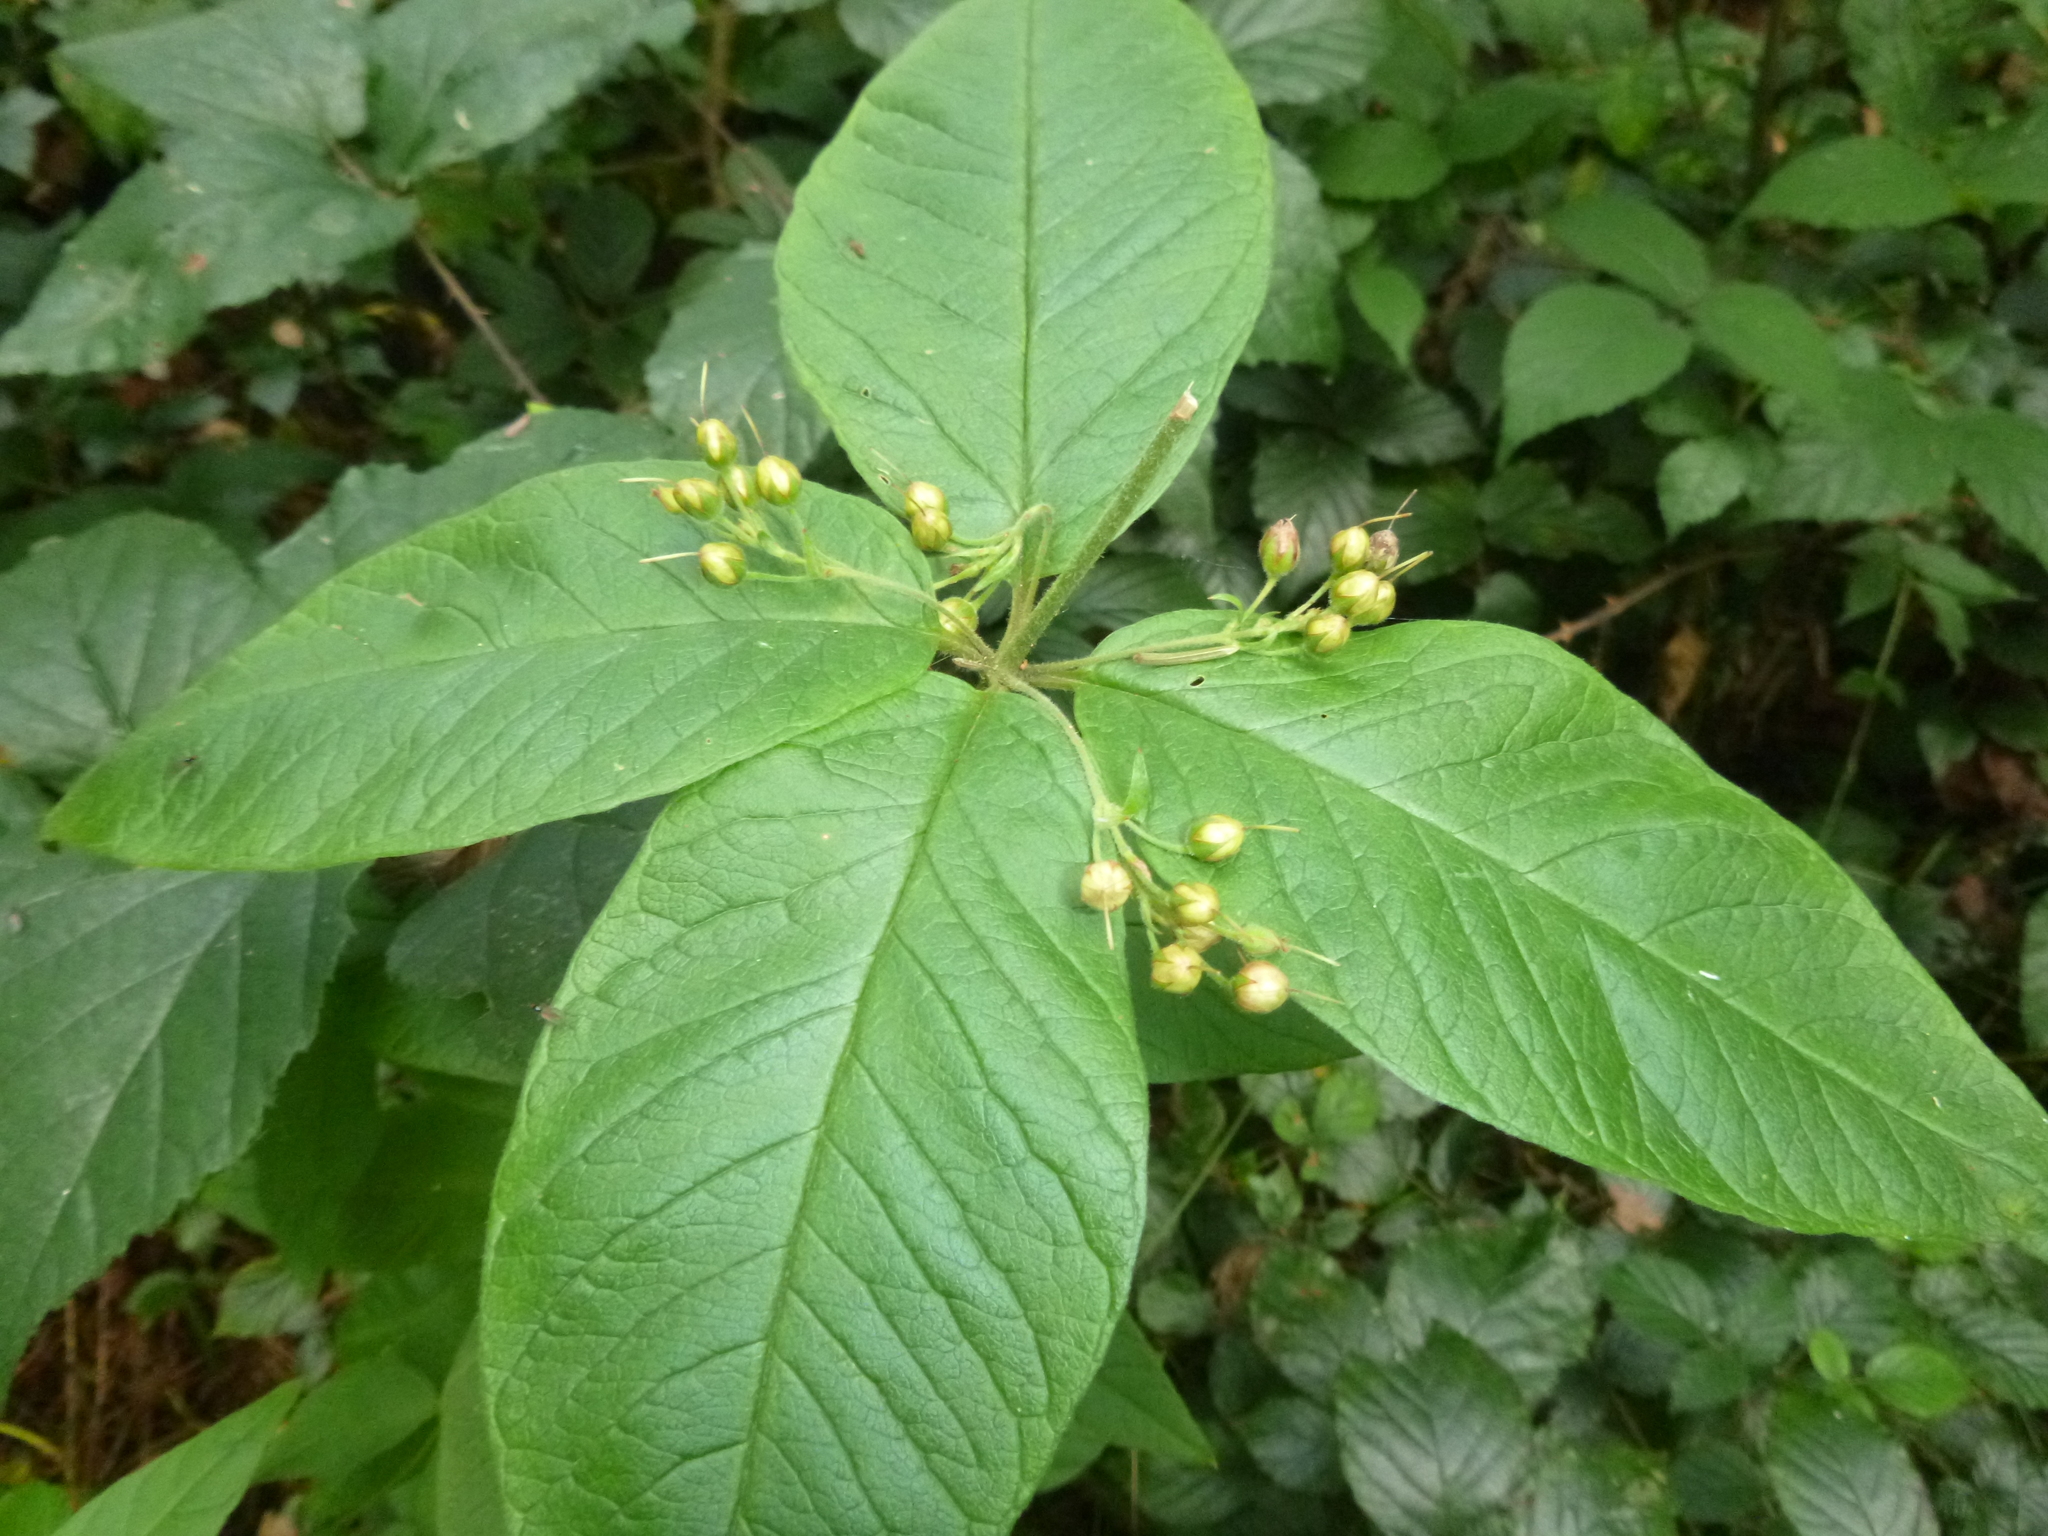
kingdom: Plantae
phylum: Tracheophyta
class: Magnoliopsida
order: Ericales
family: Primulaceae
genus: Lysimachia
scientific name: Lysimachia vulgaris
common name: Yellow loosestrife
